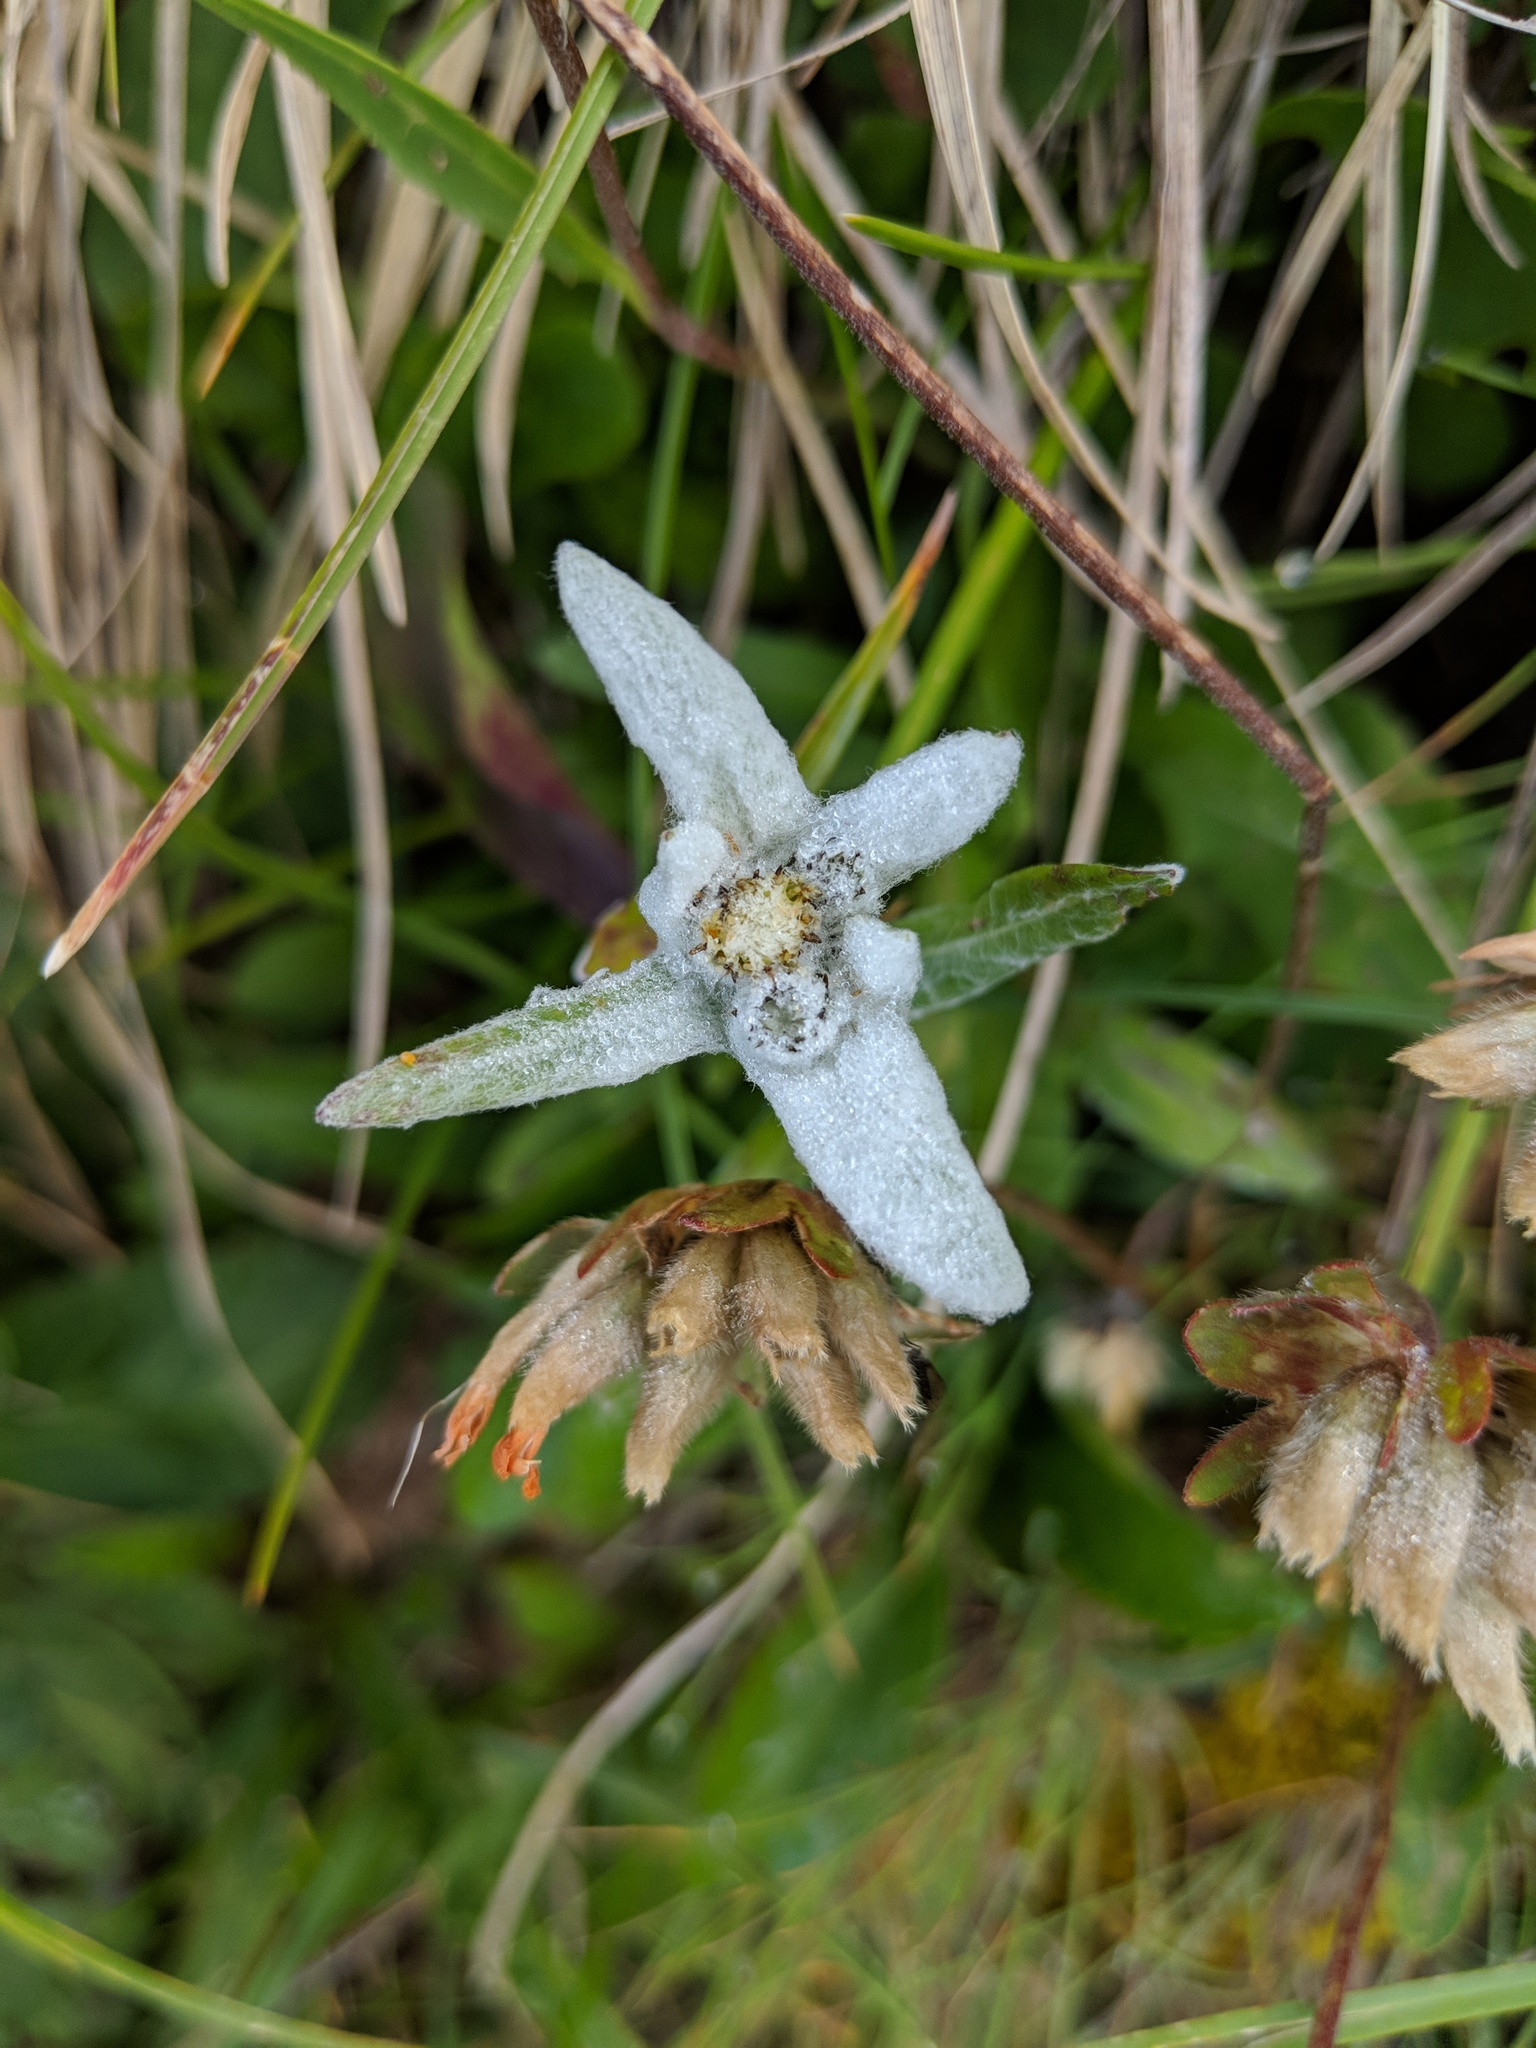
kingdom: Plantae
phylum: Tracheophyta
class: Magnoliopsida
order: Asterales
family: Asteraceae
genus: Leontopodium
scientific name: Leontopodium nivale
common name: Edelweiss
